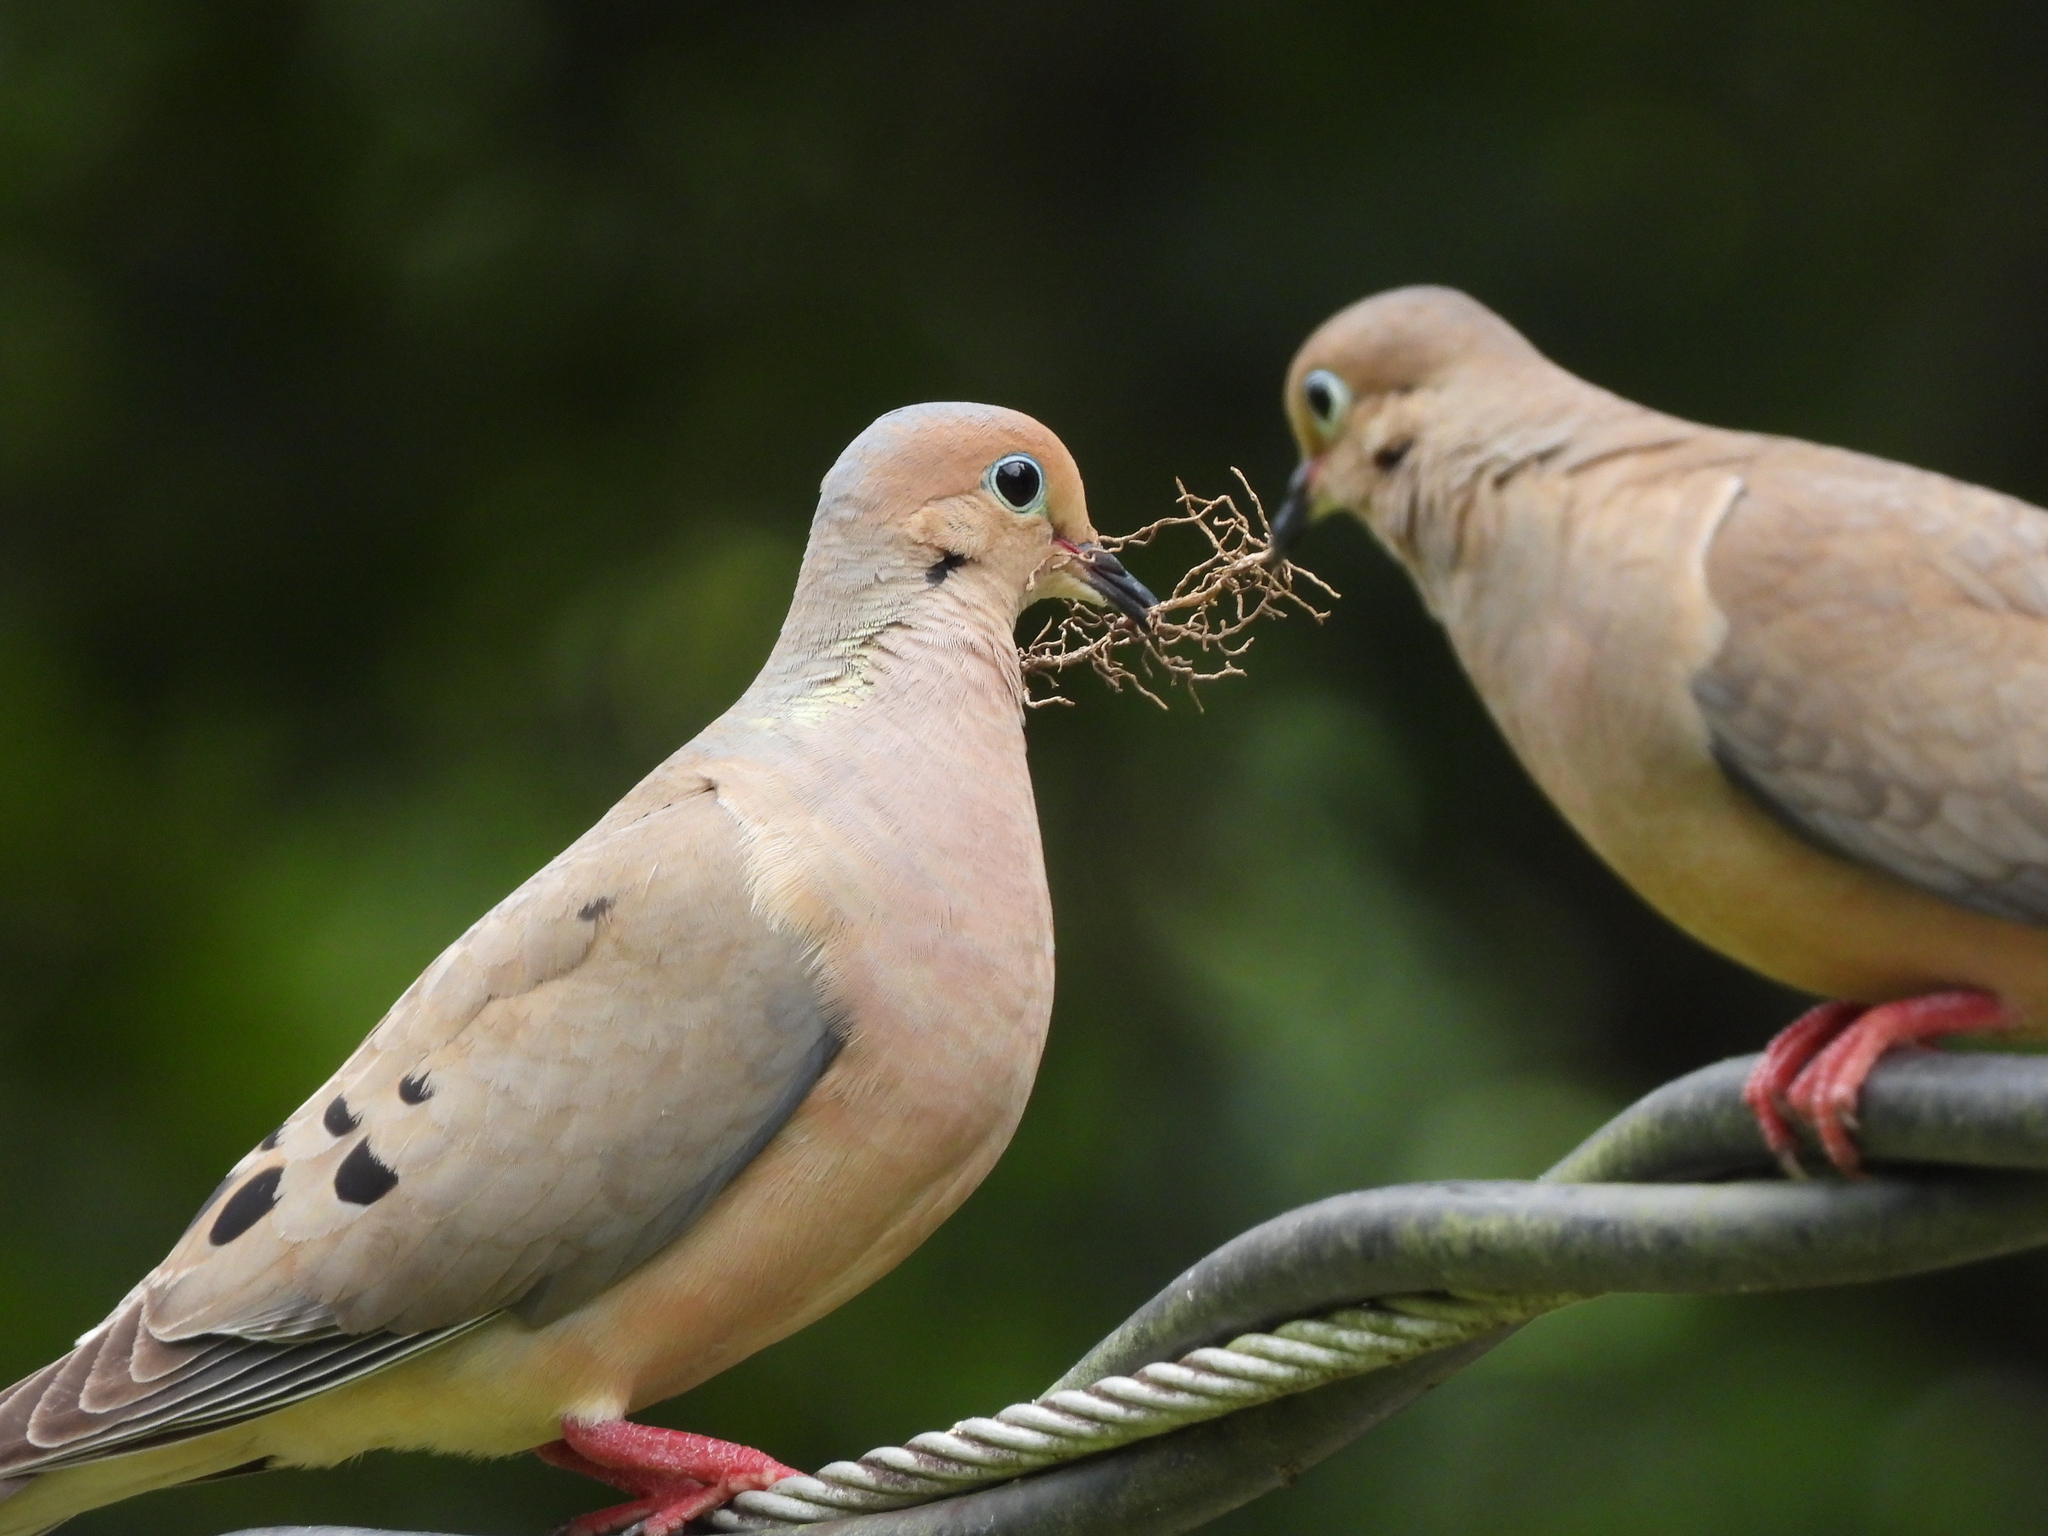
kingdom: Animalia
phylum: Chordata
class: Aves
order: Columbiformes
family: Columbidae
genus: Zenaida
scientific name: Zenaida macroura
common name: Mourning dove
